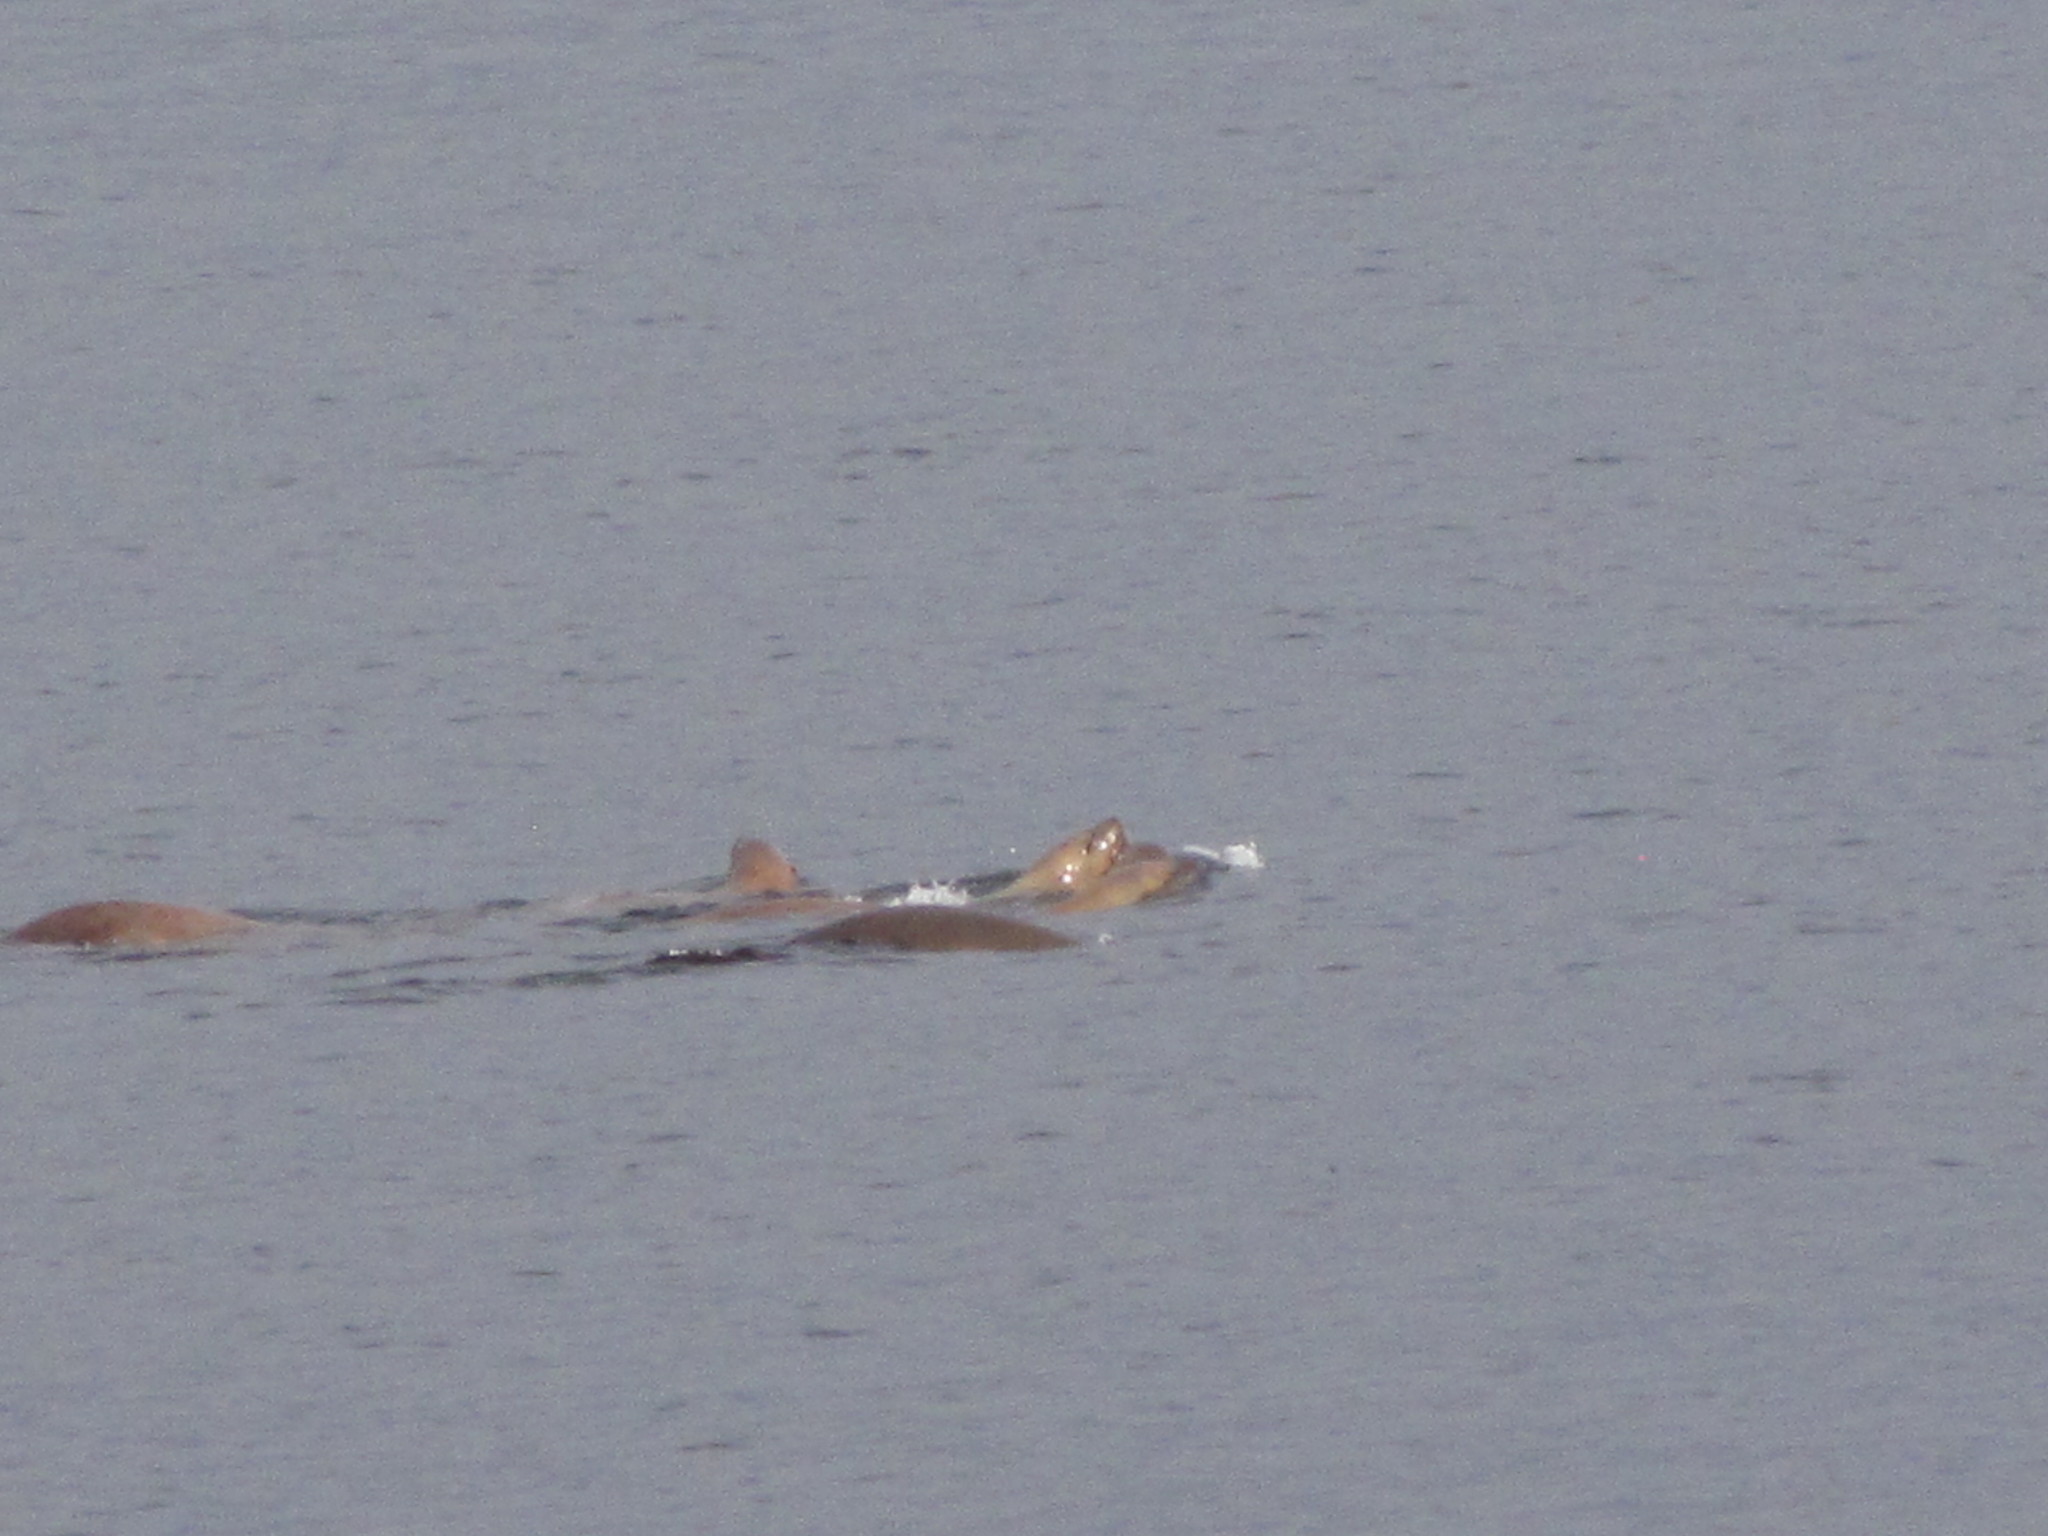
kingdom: Animalia
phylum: Chordata
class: Mammalia
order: Carnivora
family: Otariidae
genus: Eumetopias
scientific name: Eumetopias jubatus
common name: Steller sea lion
